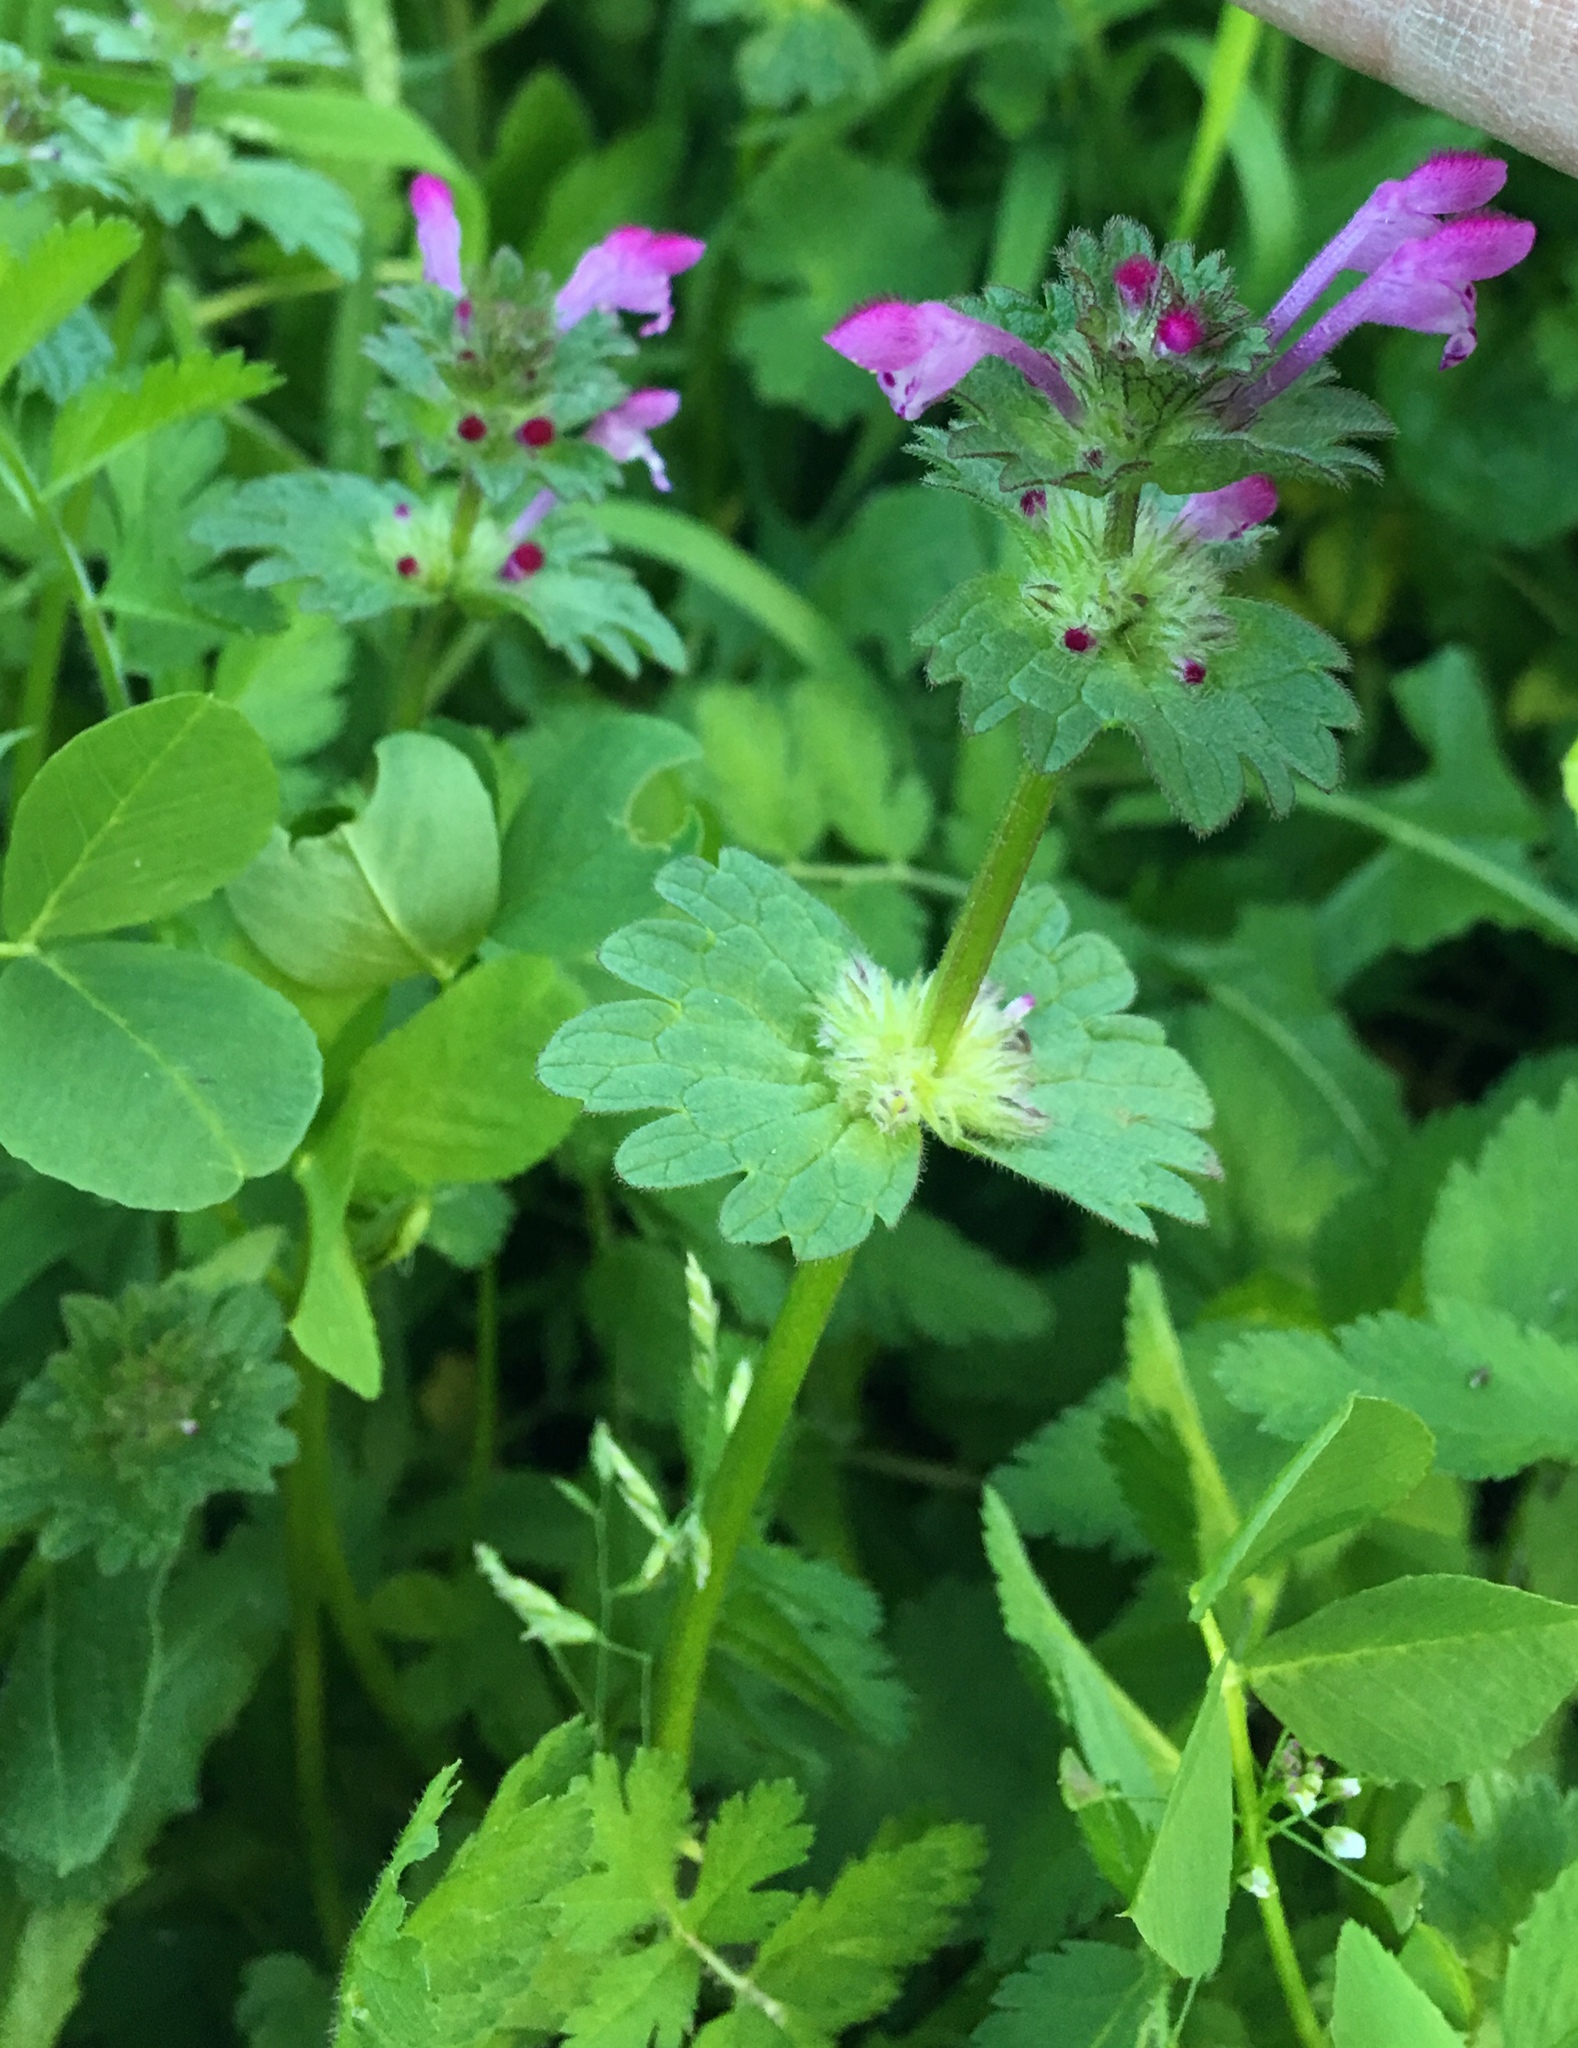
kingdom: Plantae
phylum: Tracheophyta
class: Magnoliopsida
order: Lamiales
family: Lamiaceae
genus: Lamium
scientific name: Lamium amplexicaule
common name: Henbit dead-nettle
